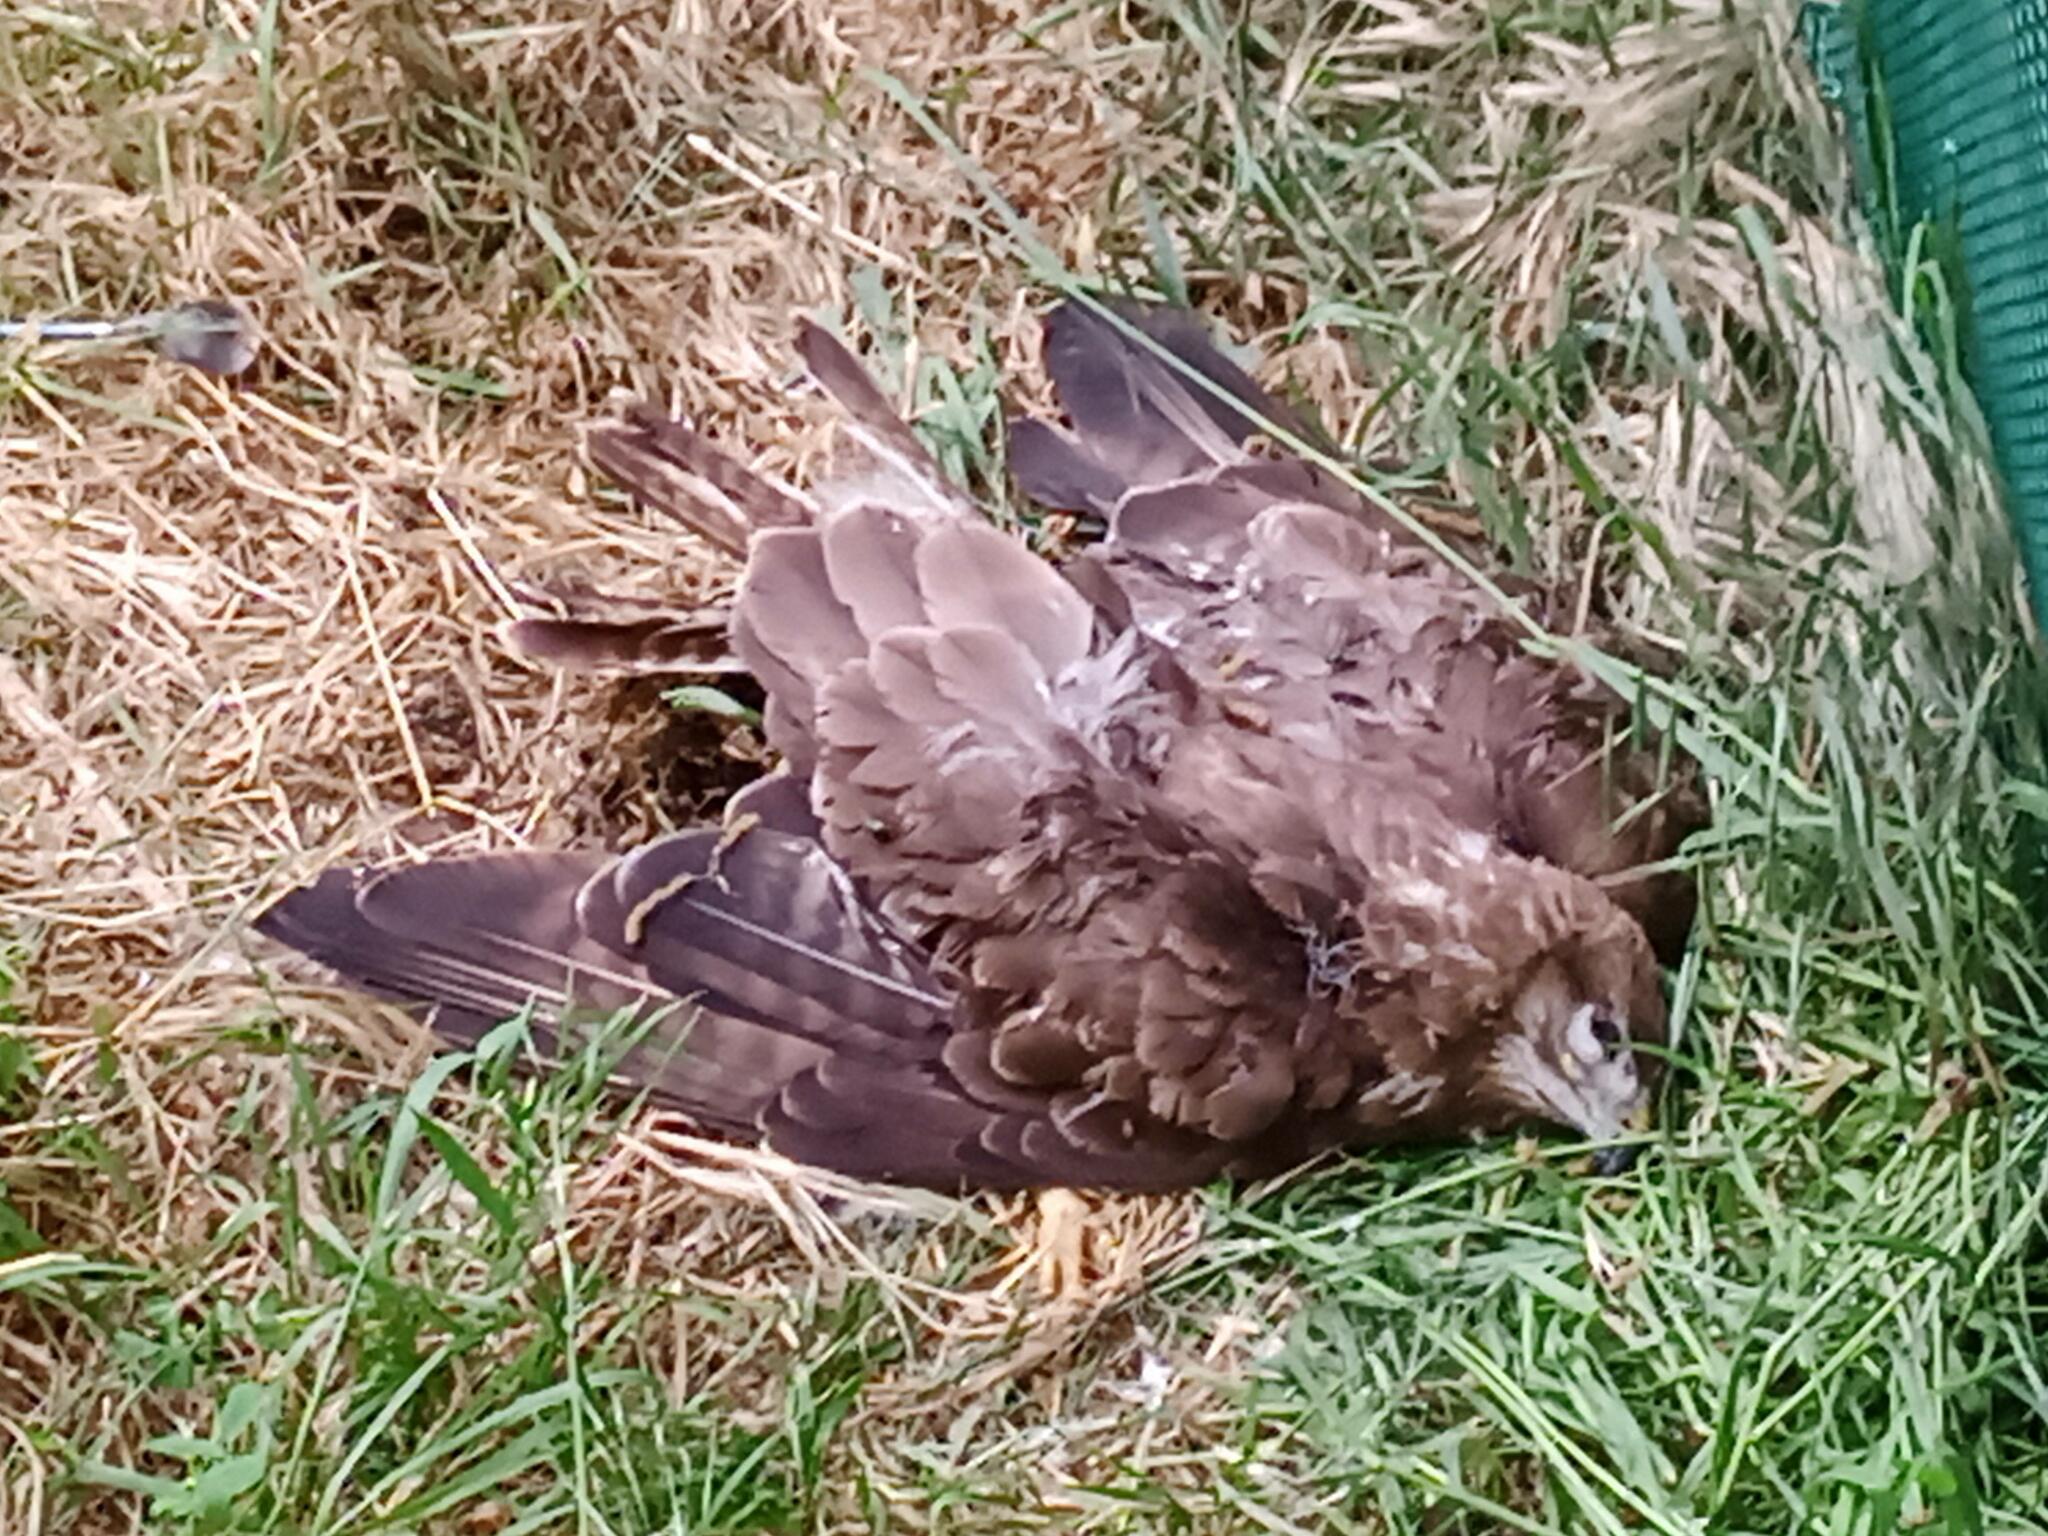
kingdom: Animalia
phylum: Chordata
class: Aves
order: Accipitriformes
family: Accipitridae
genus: Buteo
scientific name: Buteo buteo
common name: Common buzzard
